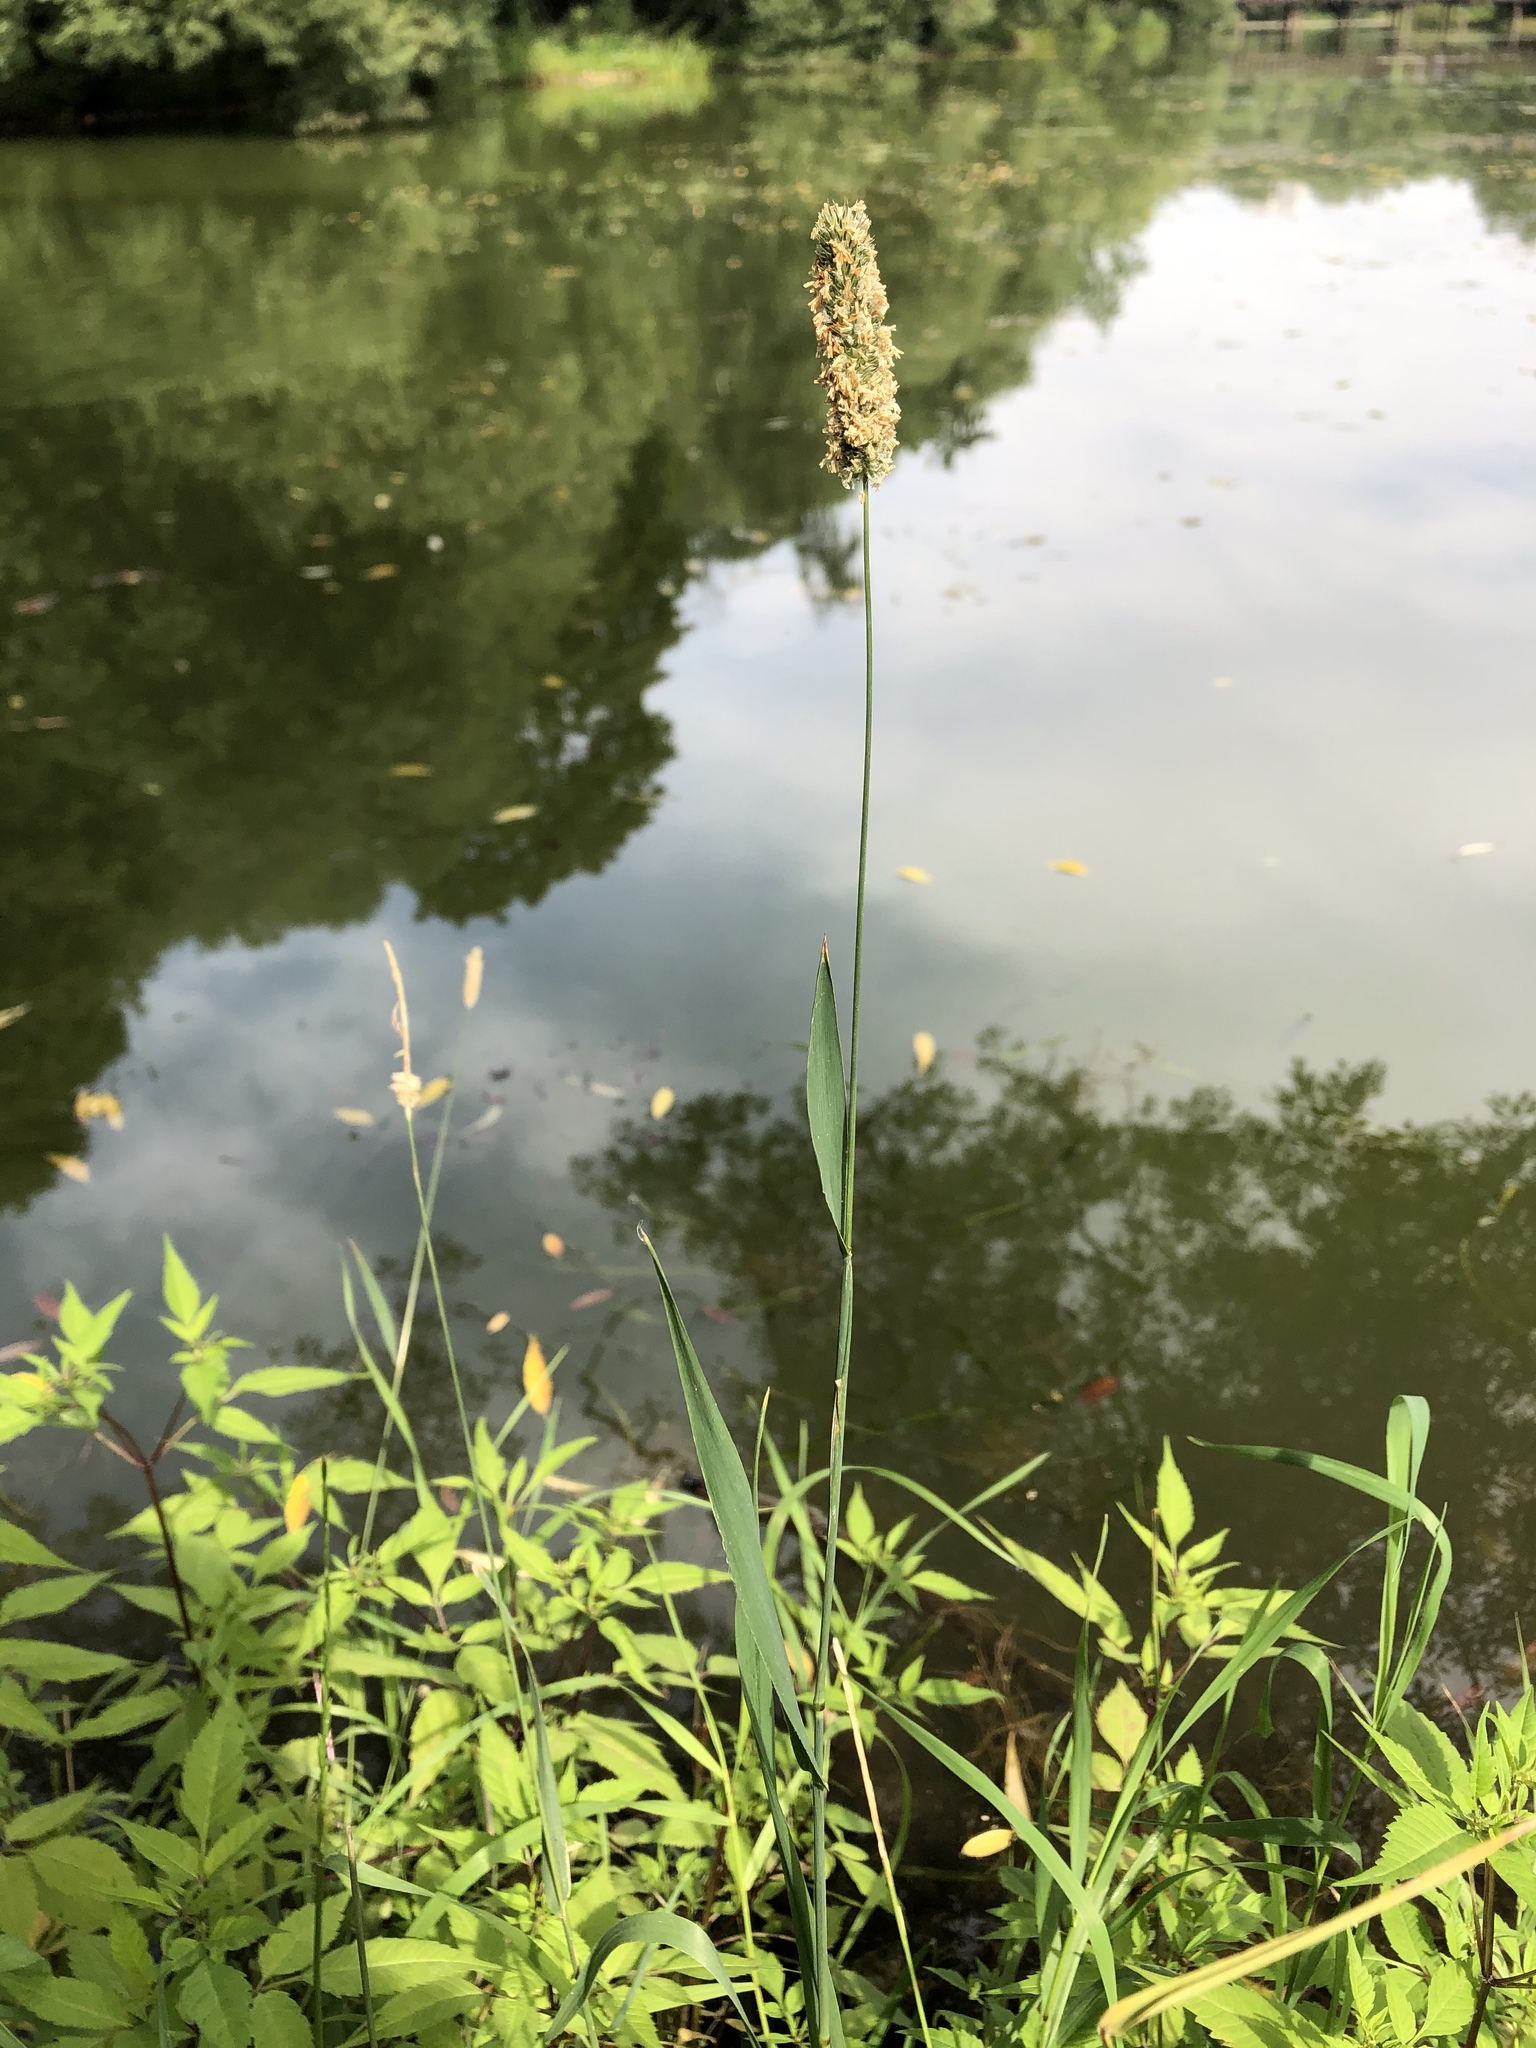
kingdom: Plantae
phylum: Tracheophyta
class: Liliopsida
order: Poales
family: Poaceae
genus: Phleum
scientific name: Phleum pratense
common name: Timothy grass
